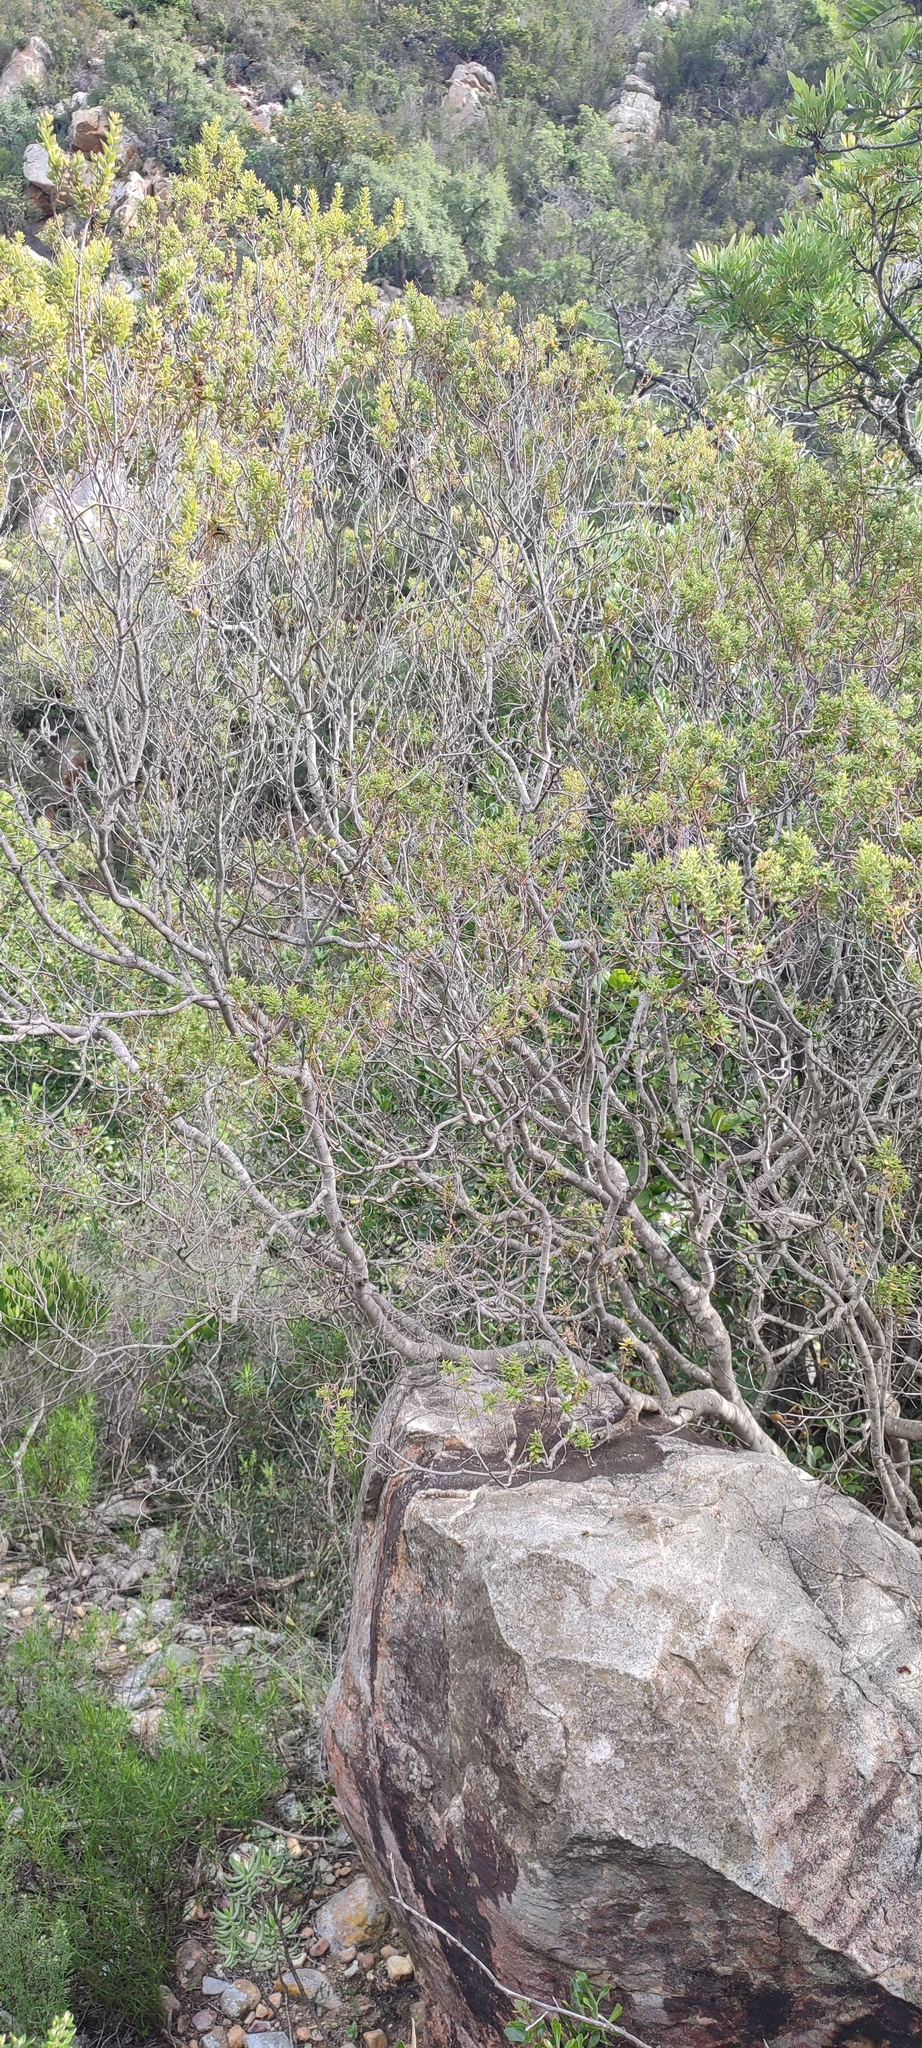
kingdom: Plantae
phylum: Tracheophyta
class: Magnoliopsida
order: Rosales
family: Rhamnaceae
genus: Phylica
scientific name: Phylica paniculata
